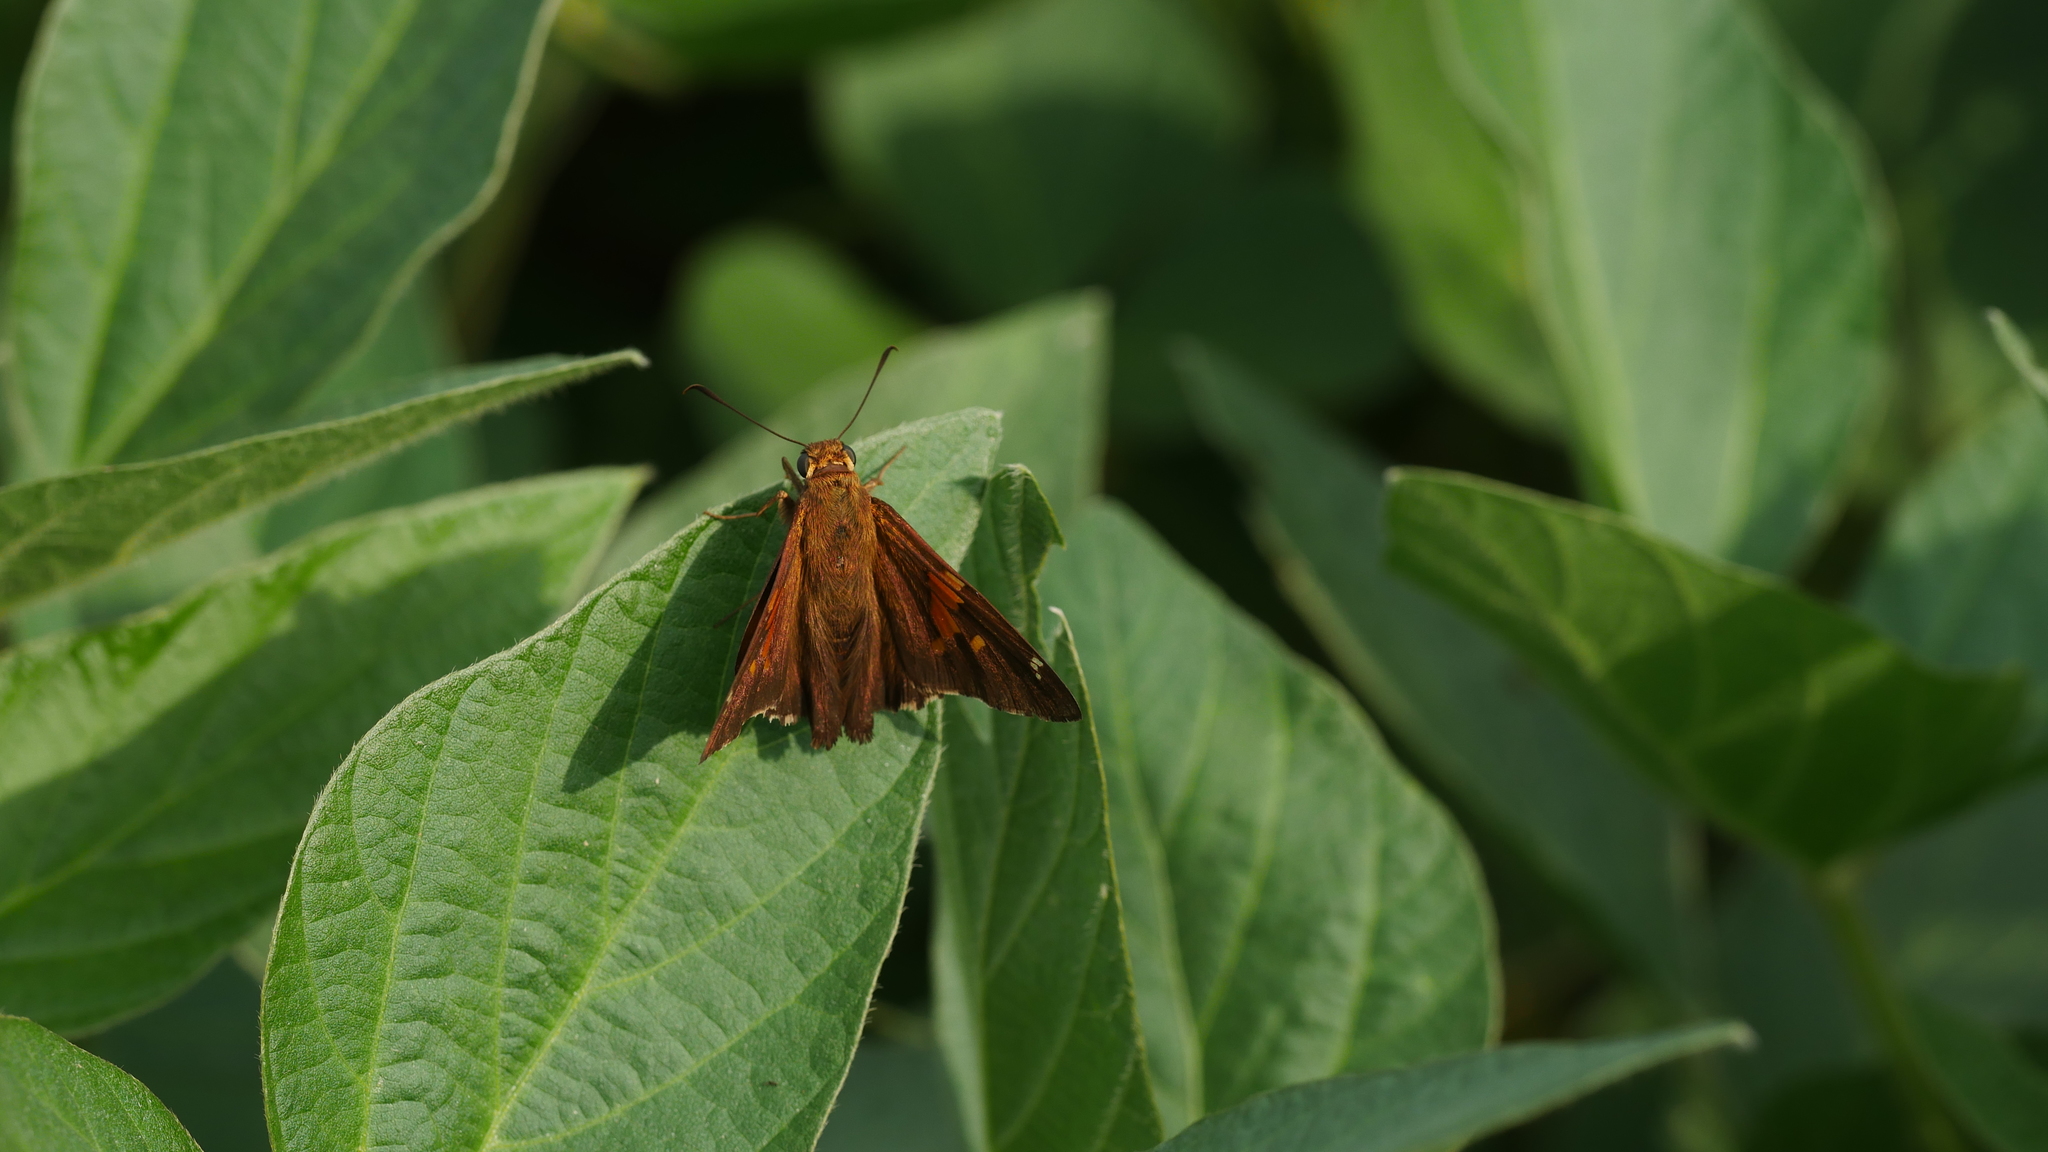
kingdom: Animalia
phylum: Arthropoda
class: Insecta
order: Lepidoptera
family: Hesperiidae
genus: Epargyreus
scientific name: Epargyreus clarus
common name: Silver-spotted skipper
